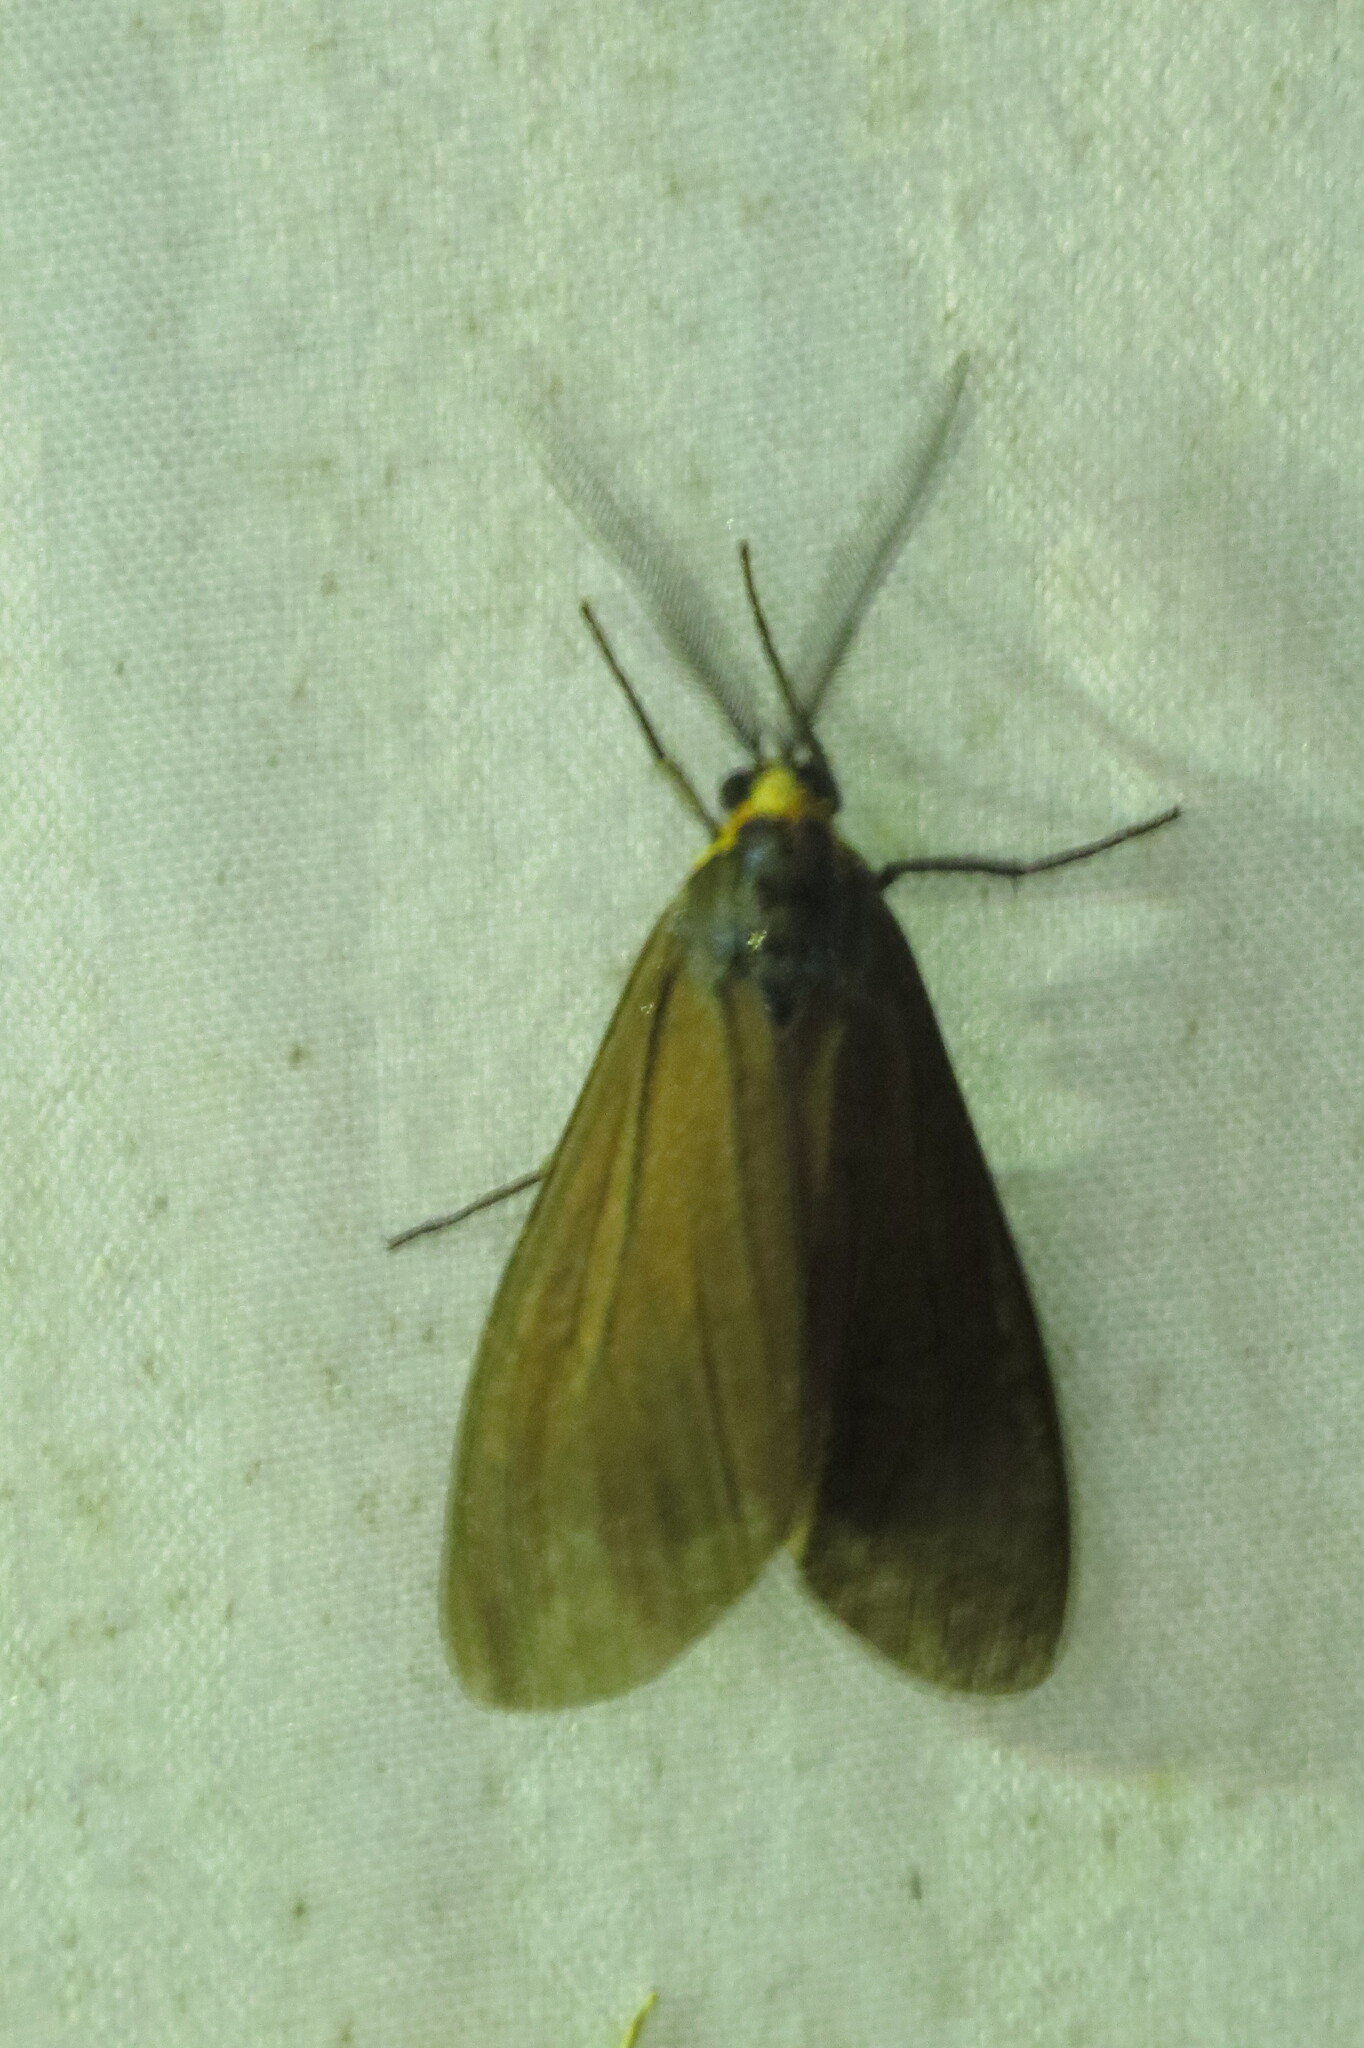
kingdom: Animalia
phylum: Arthropoda
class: Insecta
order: Lepidoptera
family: Erebidae
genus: Ctenucha
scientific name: Ctenucha virginica
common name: Virginia ctenucha moth
